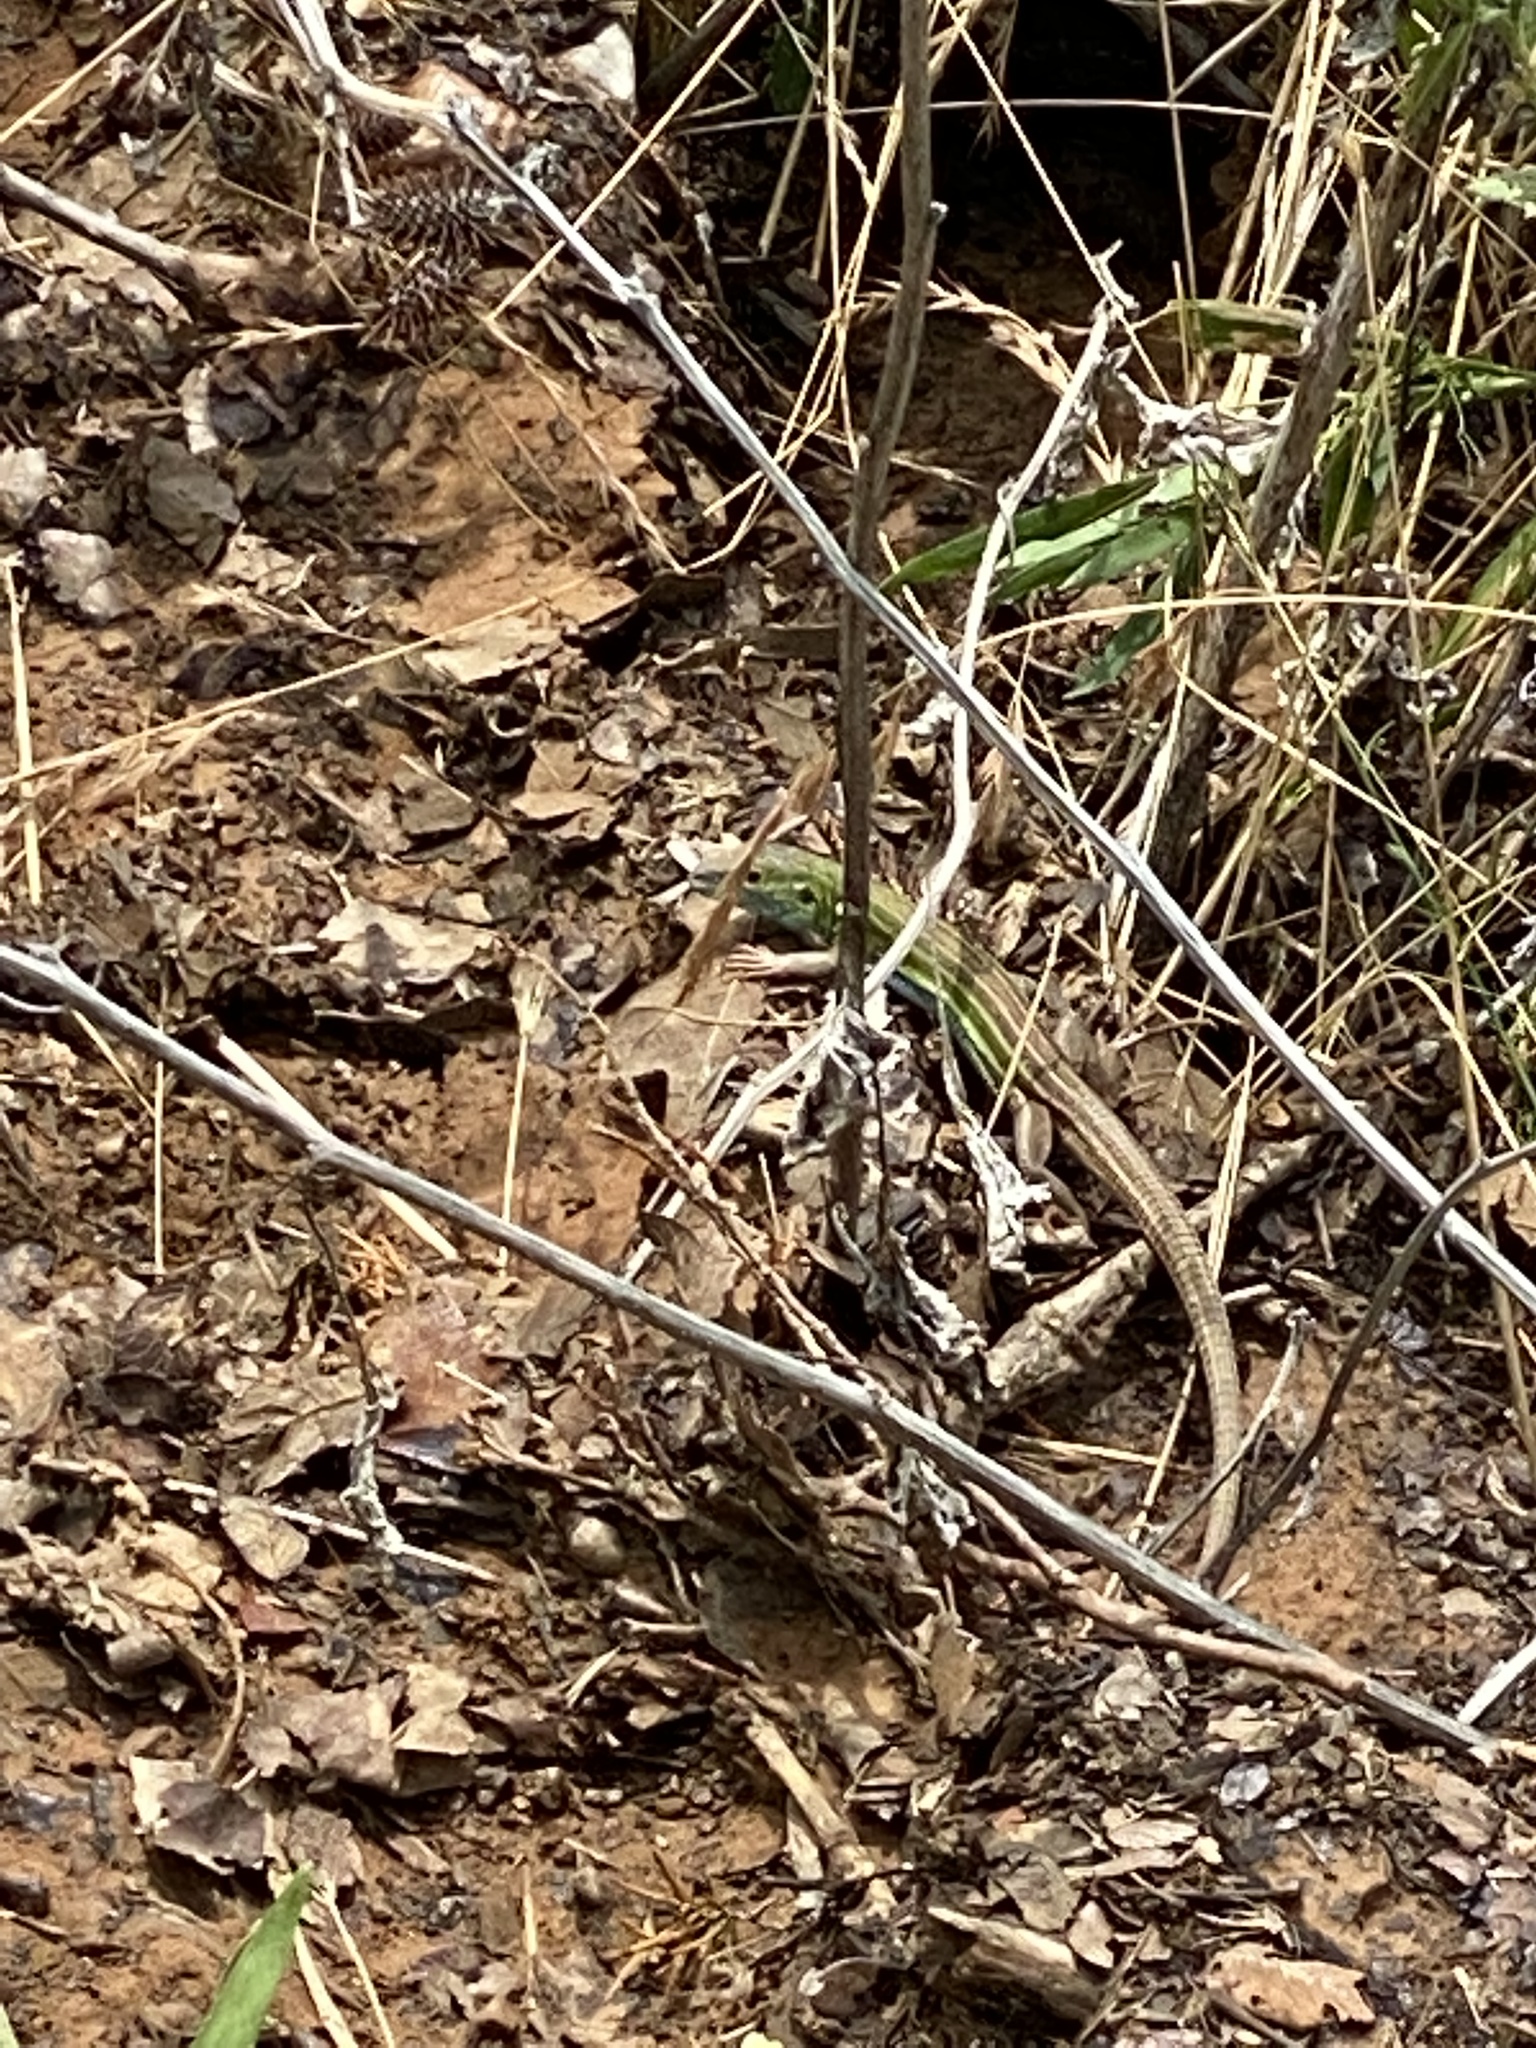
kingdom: Animalia
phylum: Chordata
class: Squamata
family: Teiidae
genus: Aspidoscelis
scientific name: Aspidoscelis sexlineatus
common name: Six-lined racerunner
